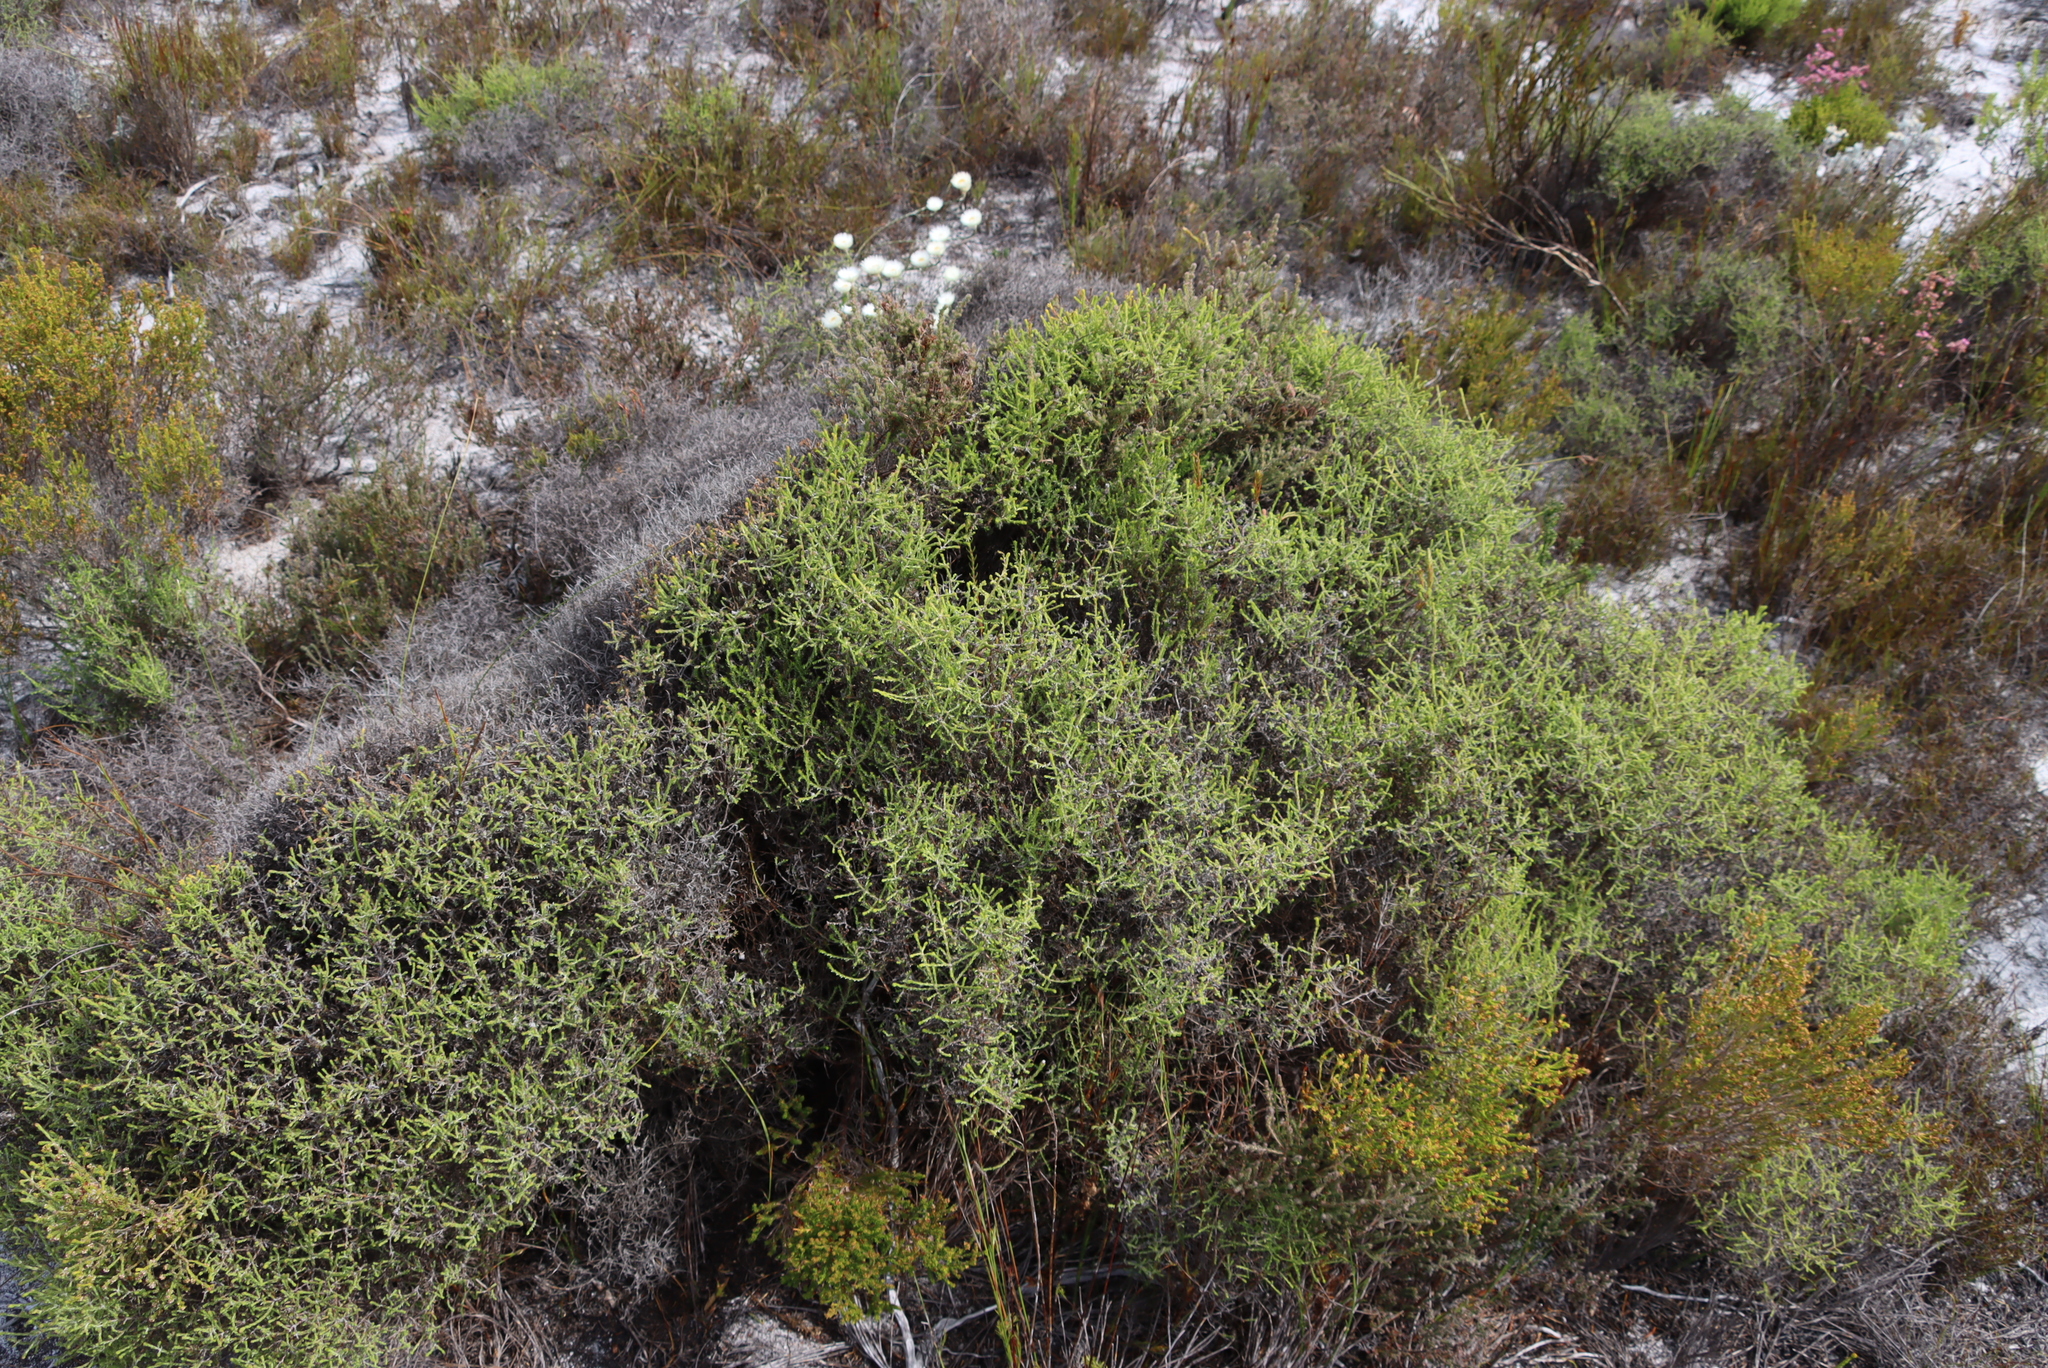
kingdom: Plantae
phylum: Tracheophyta
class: Magnoliopsida
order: Asterales
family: Asteraceae
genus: Myrovernix
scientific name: Myrovernix scaber
